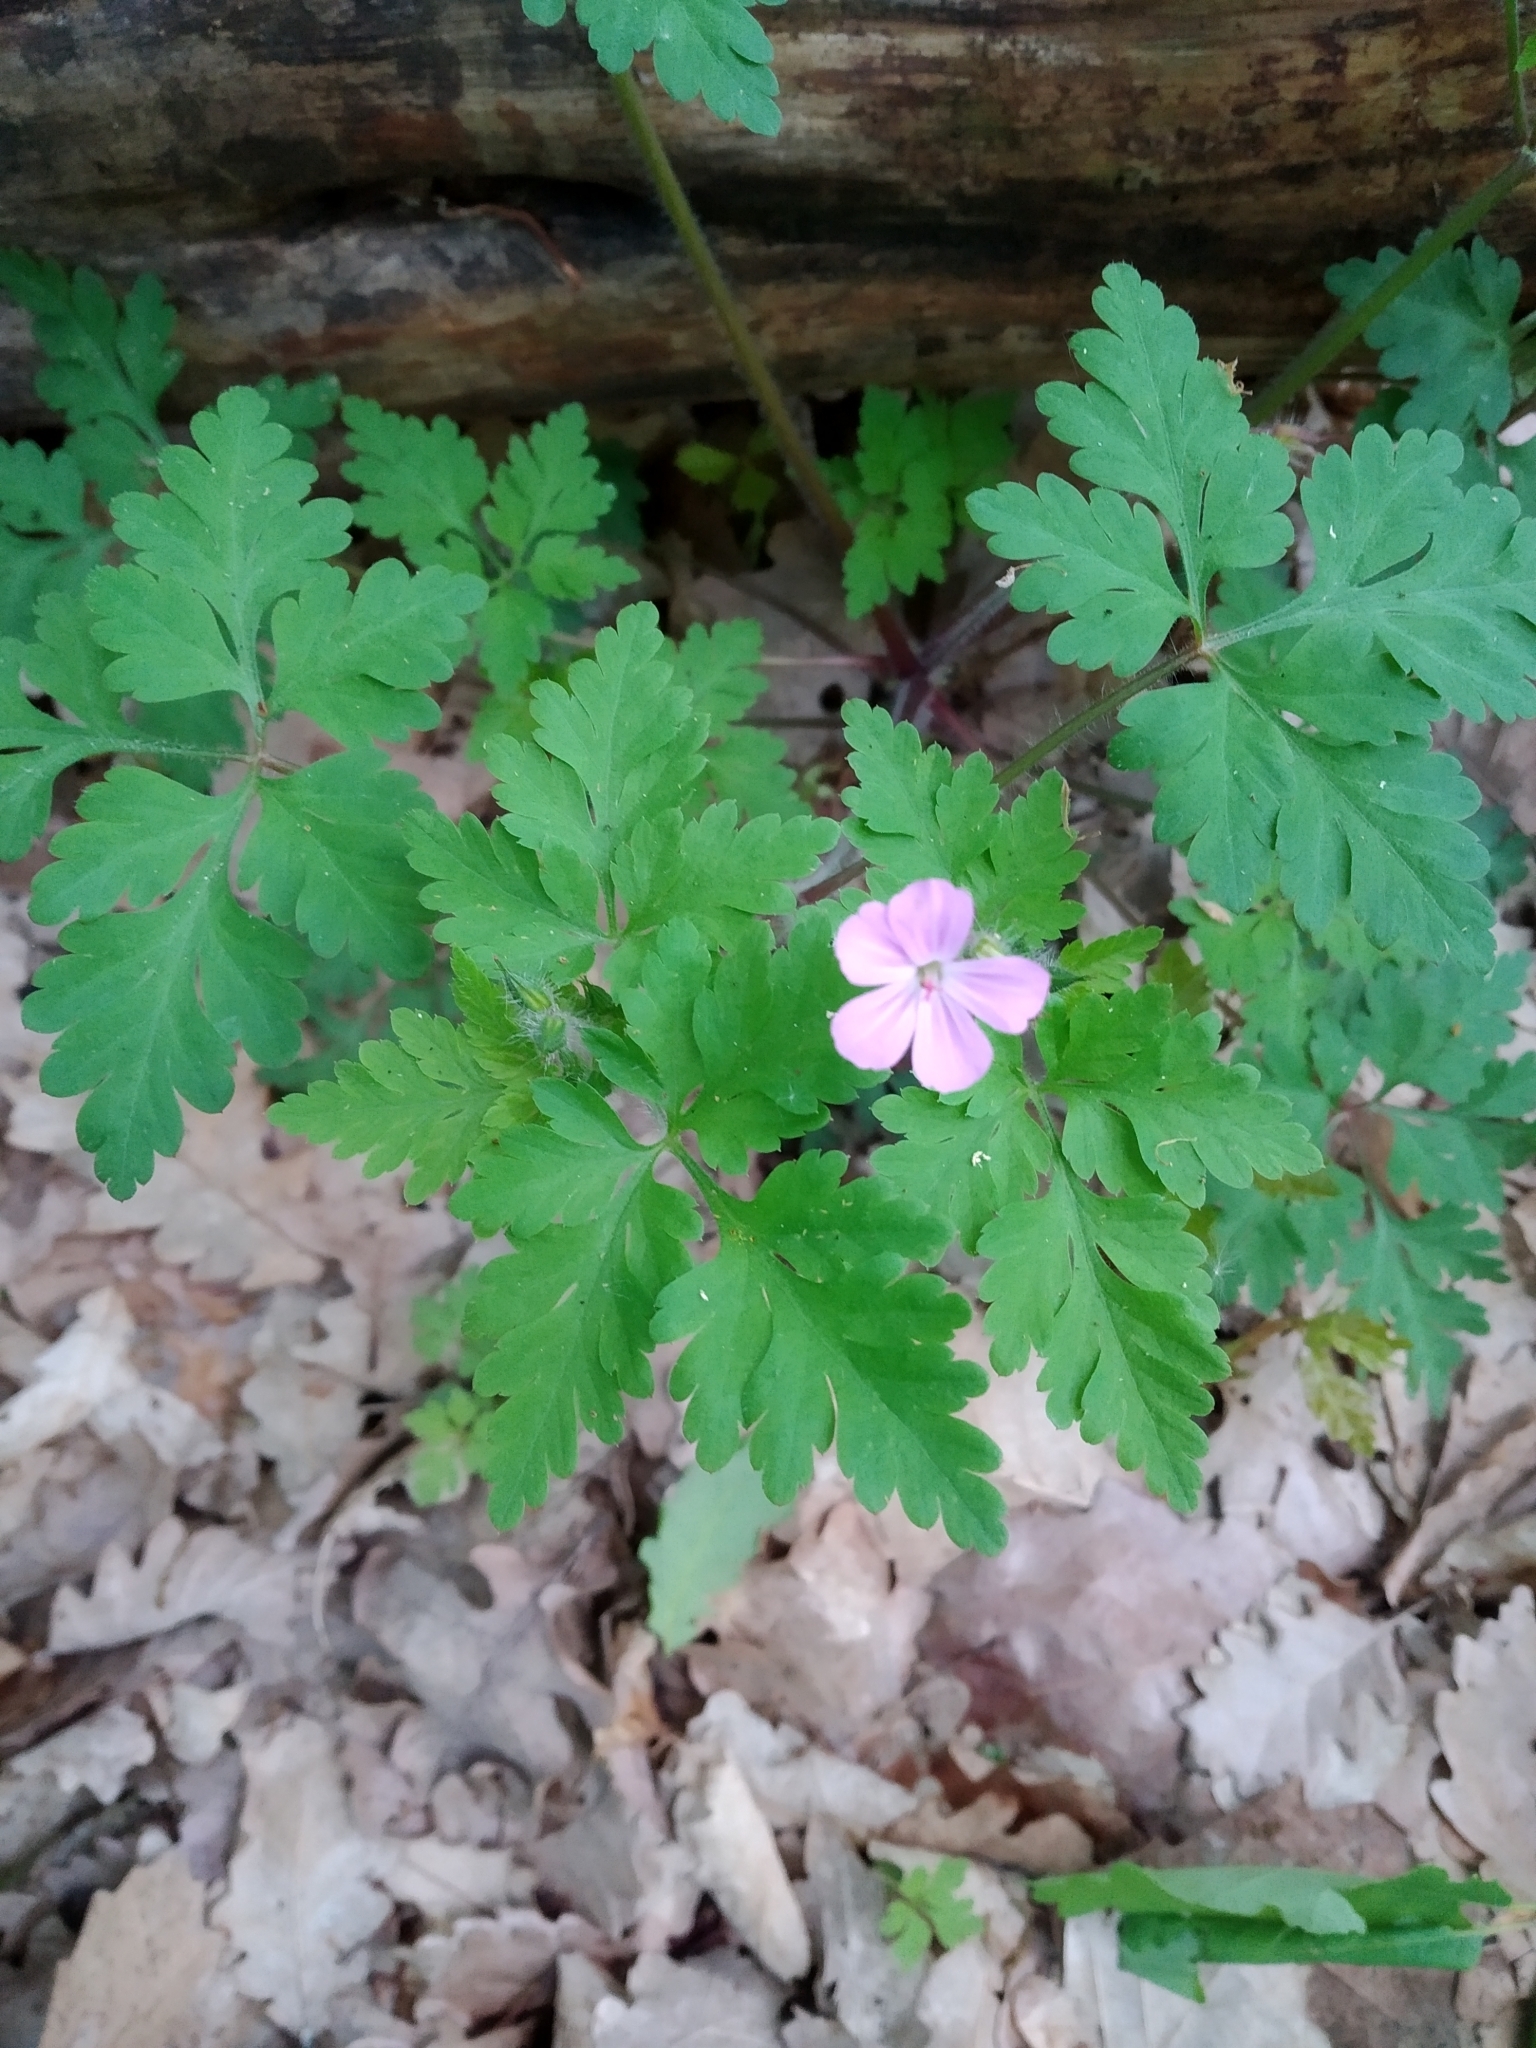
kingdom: Plantae
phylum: Tracheophyta
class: Magnoliopsida
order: Geraniales
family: Geraniaceae
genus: Geranium
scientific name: Geranium robertianum
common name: Herb-robert
